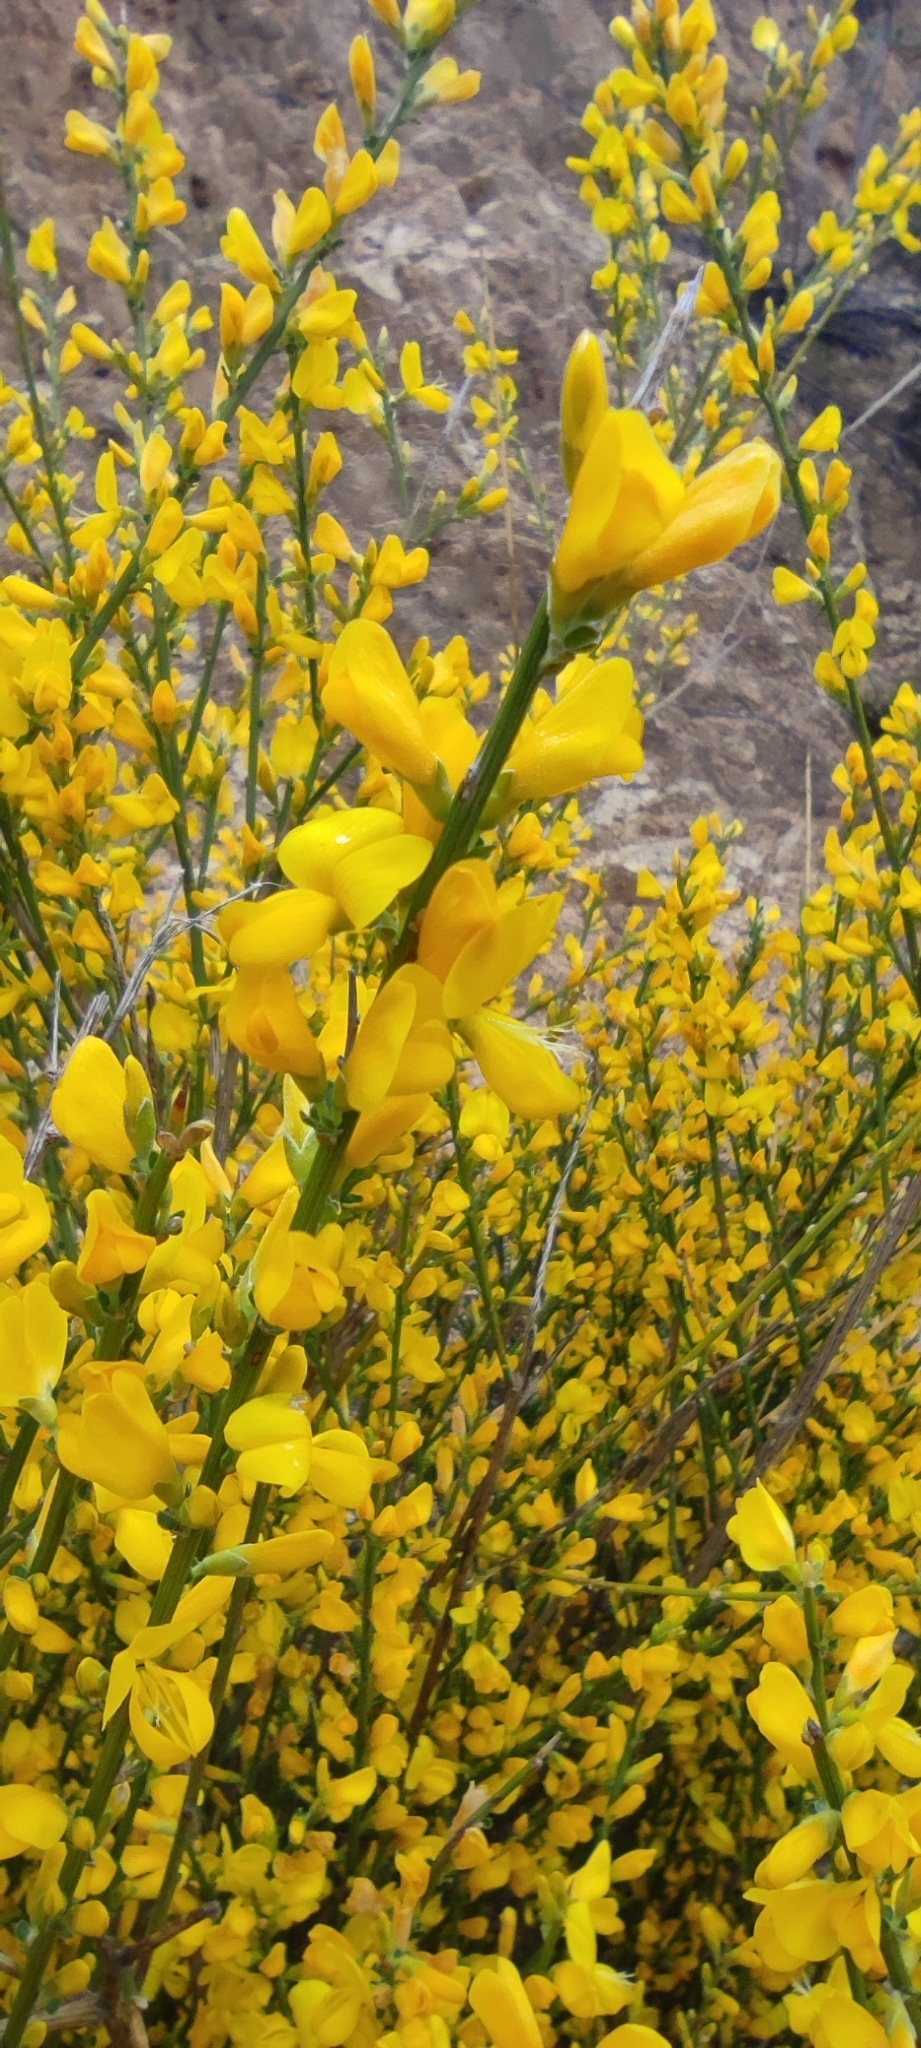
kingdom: Plantae
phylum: Tracheophyta
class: Magnoliopsida
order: Fabales
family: Fabaceae
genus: Genista
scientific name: Genista polyanthos
